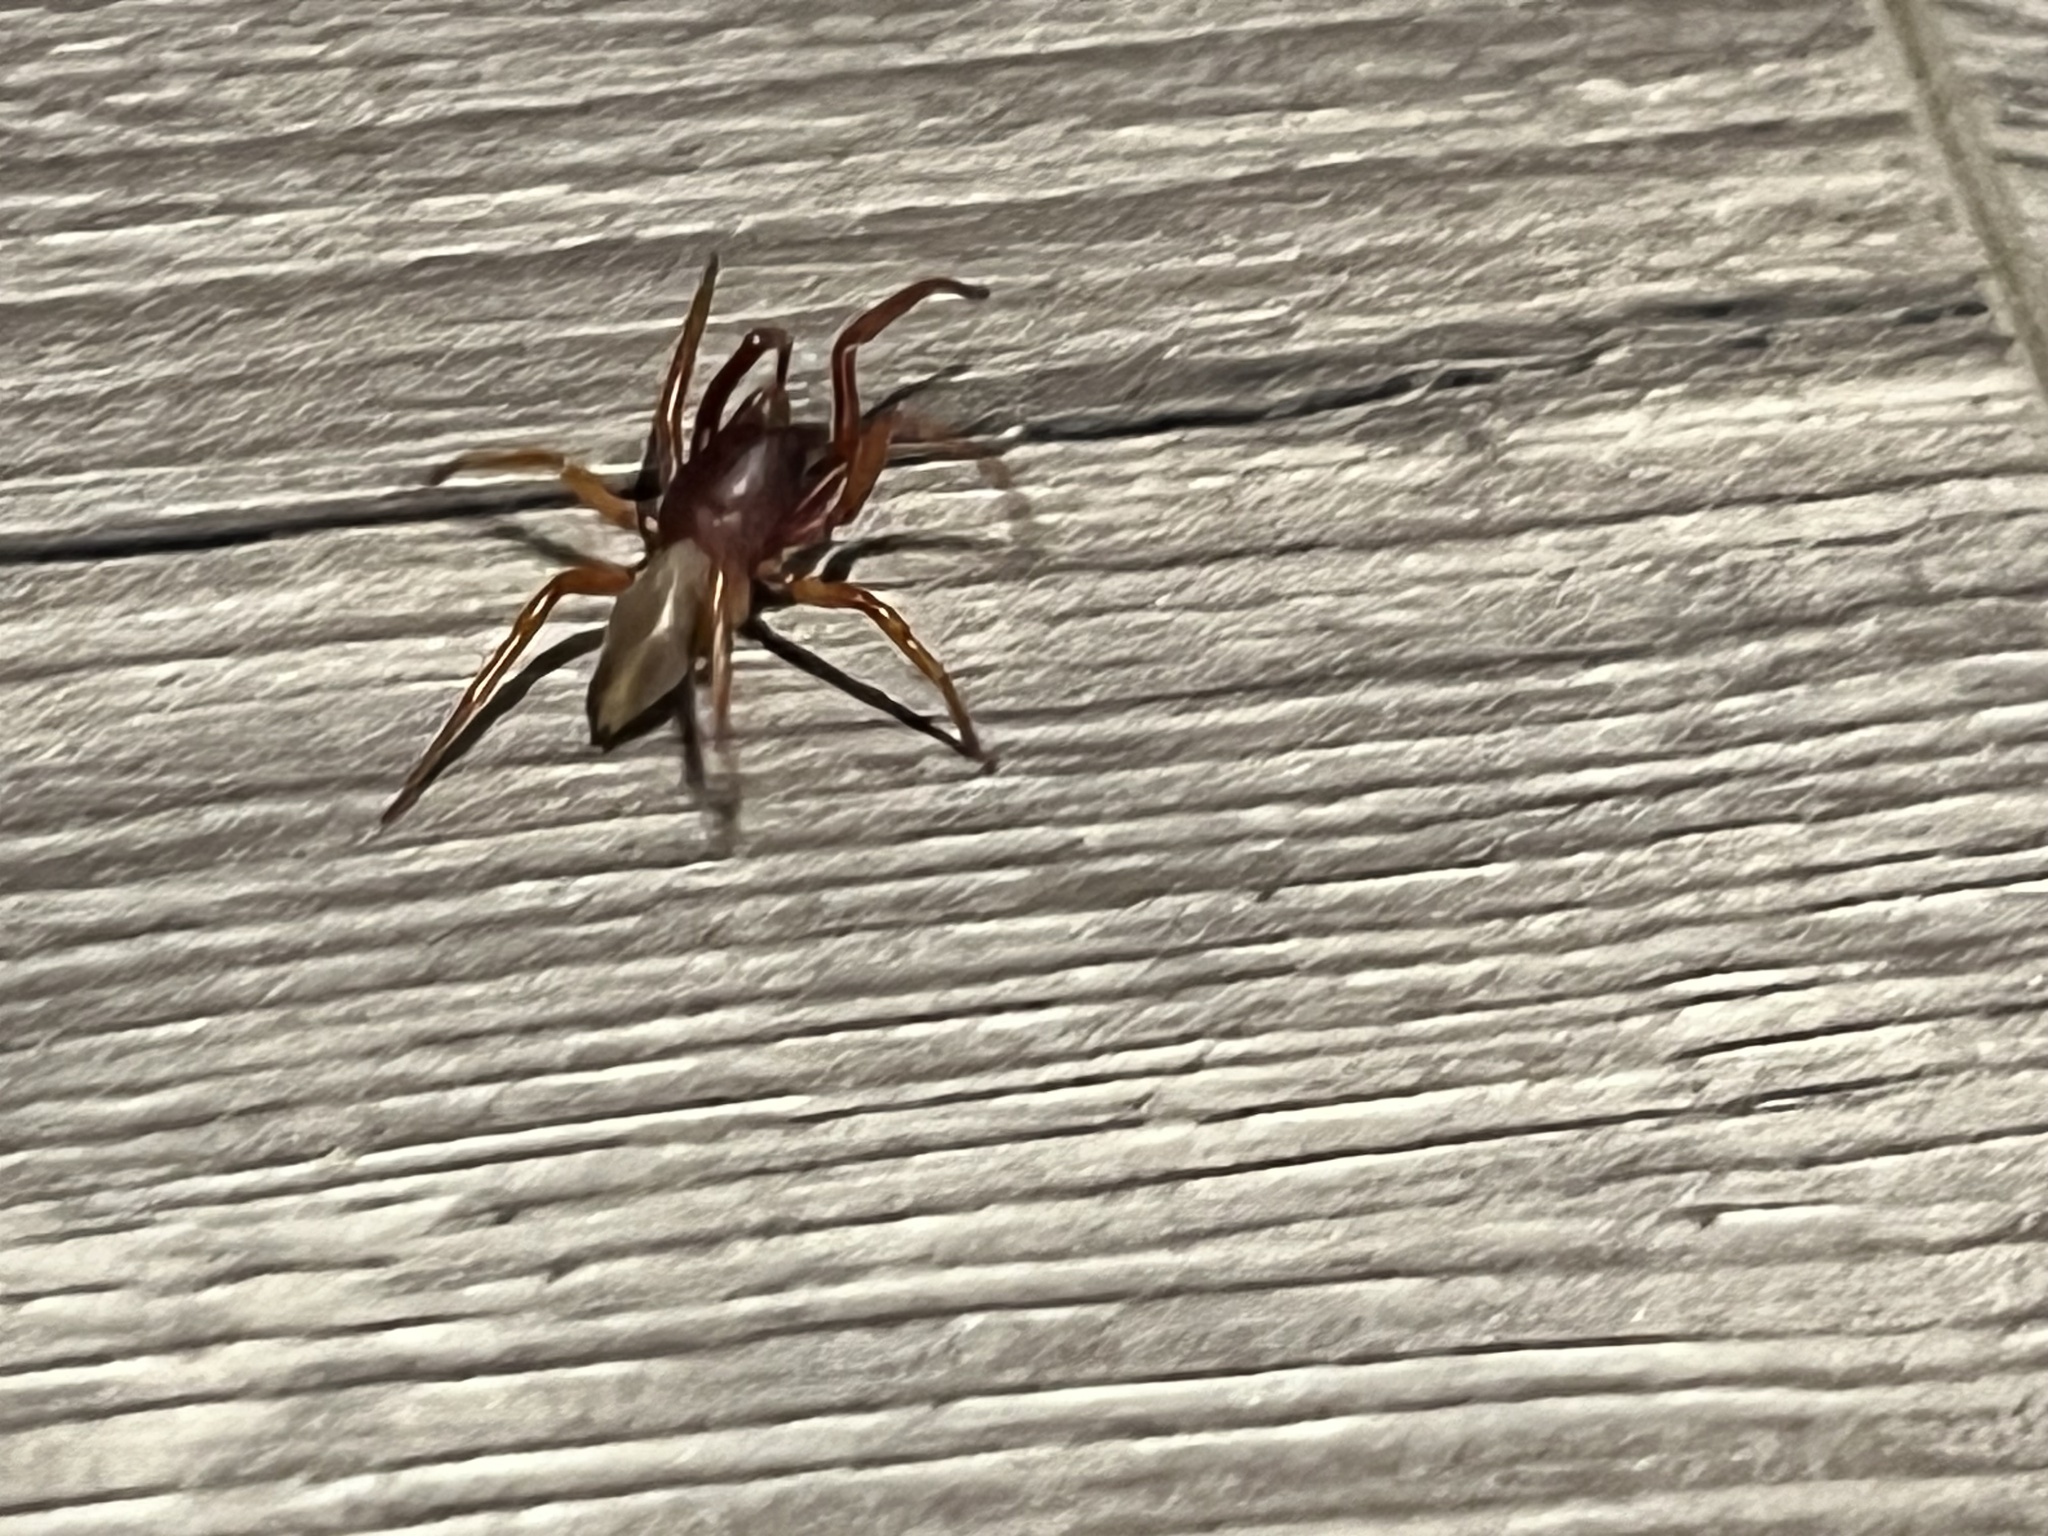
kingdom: Animalia
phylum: Arthropoda
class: Arachnida
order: Araneae
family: Dysderidae
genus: Dysdera
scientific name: Dysdera crocata
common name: Woodlouse spider
